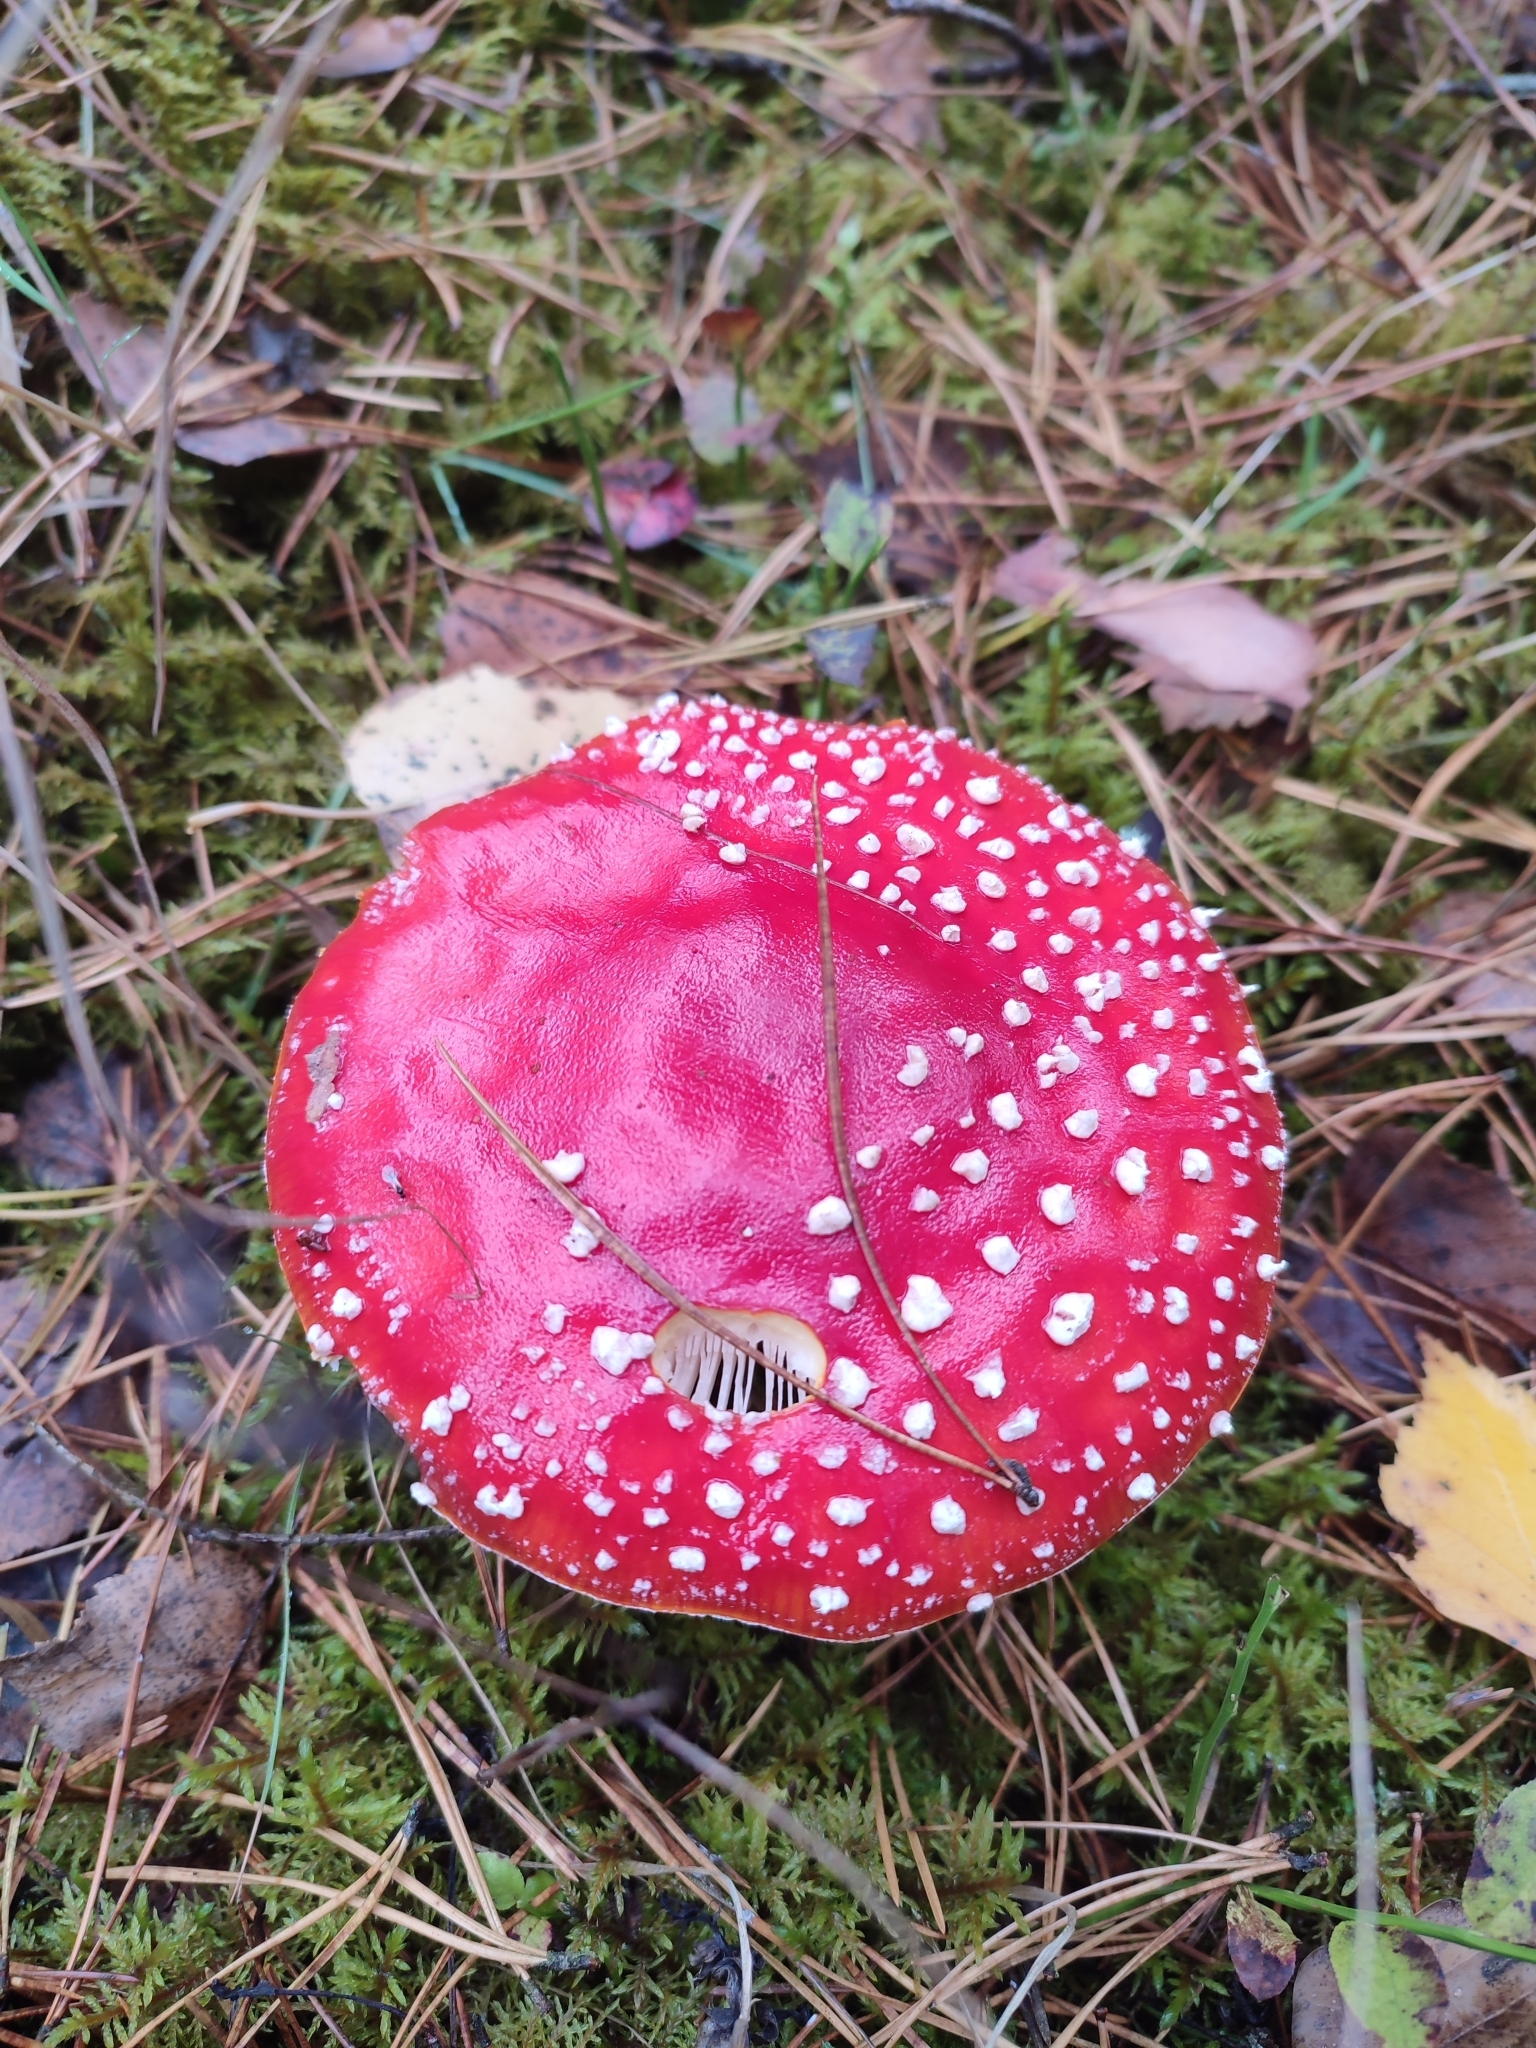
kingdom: Fungi
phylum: Basidiomycota
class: Agaricomycetes
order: Agaricales
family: Amanitaceae
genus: Amanita
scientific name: Amanita muscaria
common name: Fly agaric
